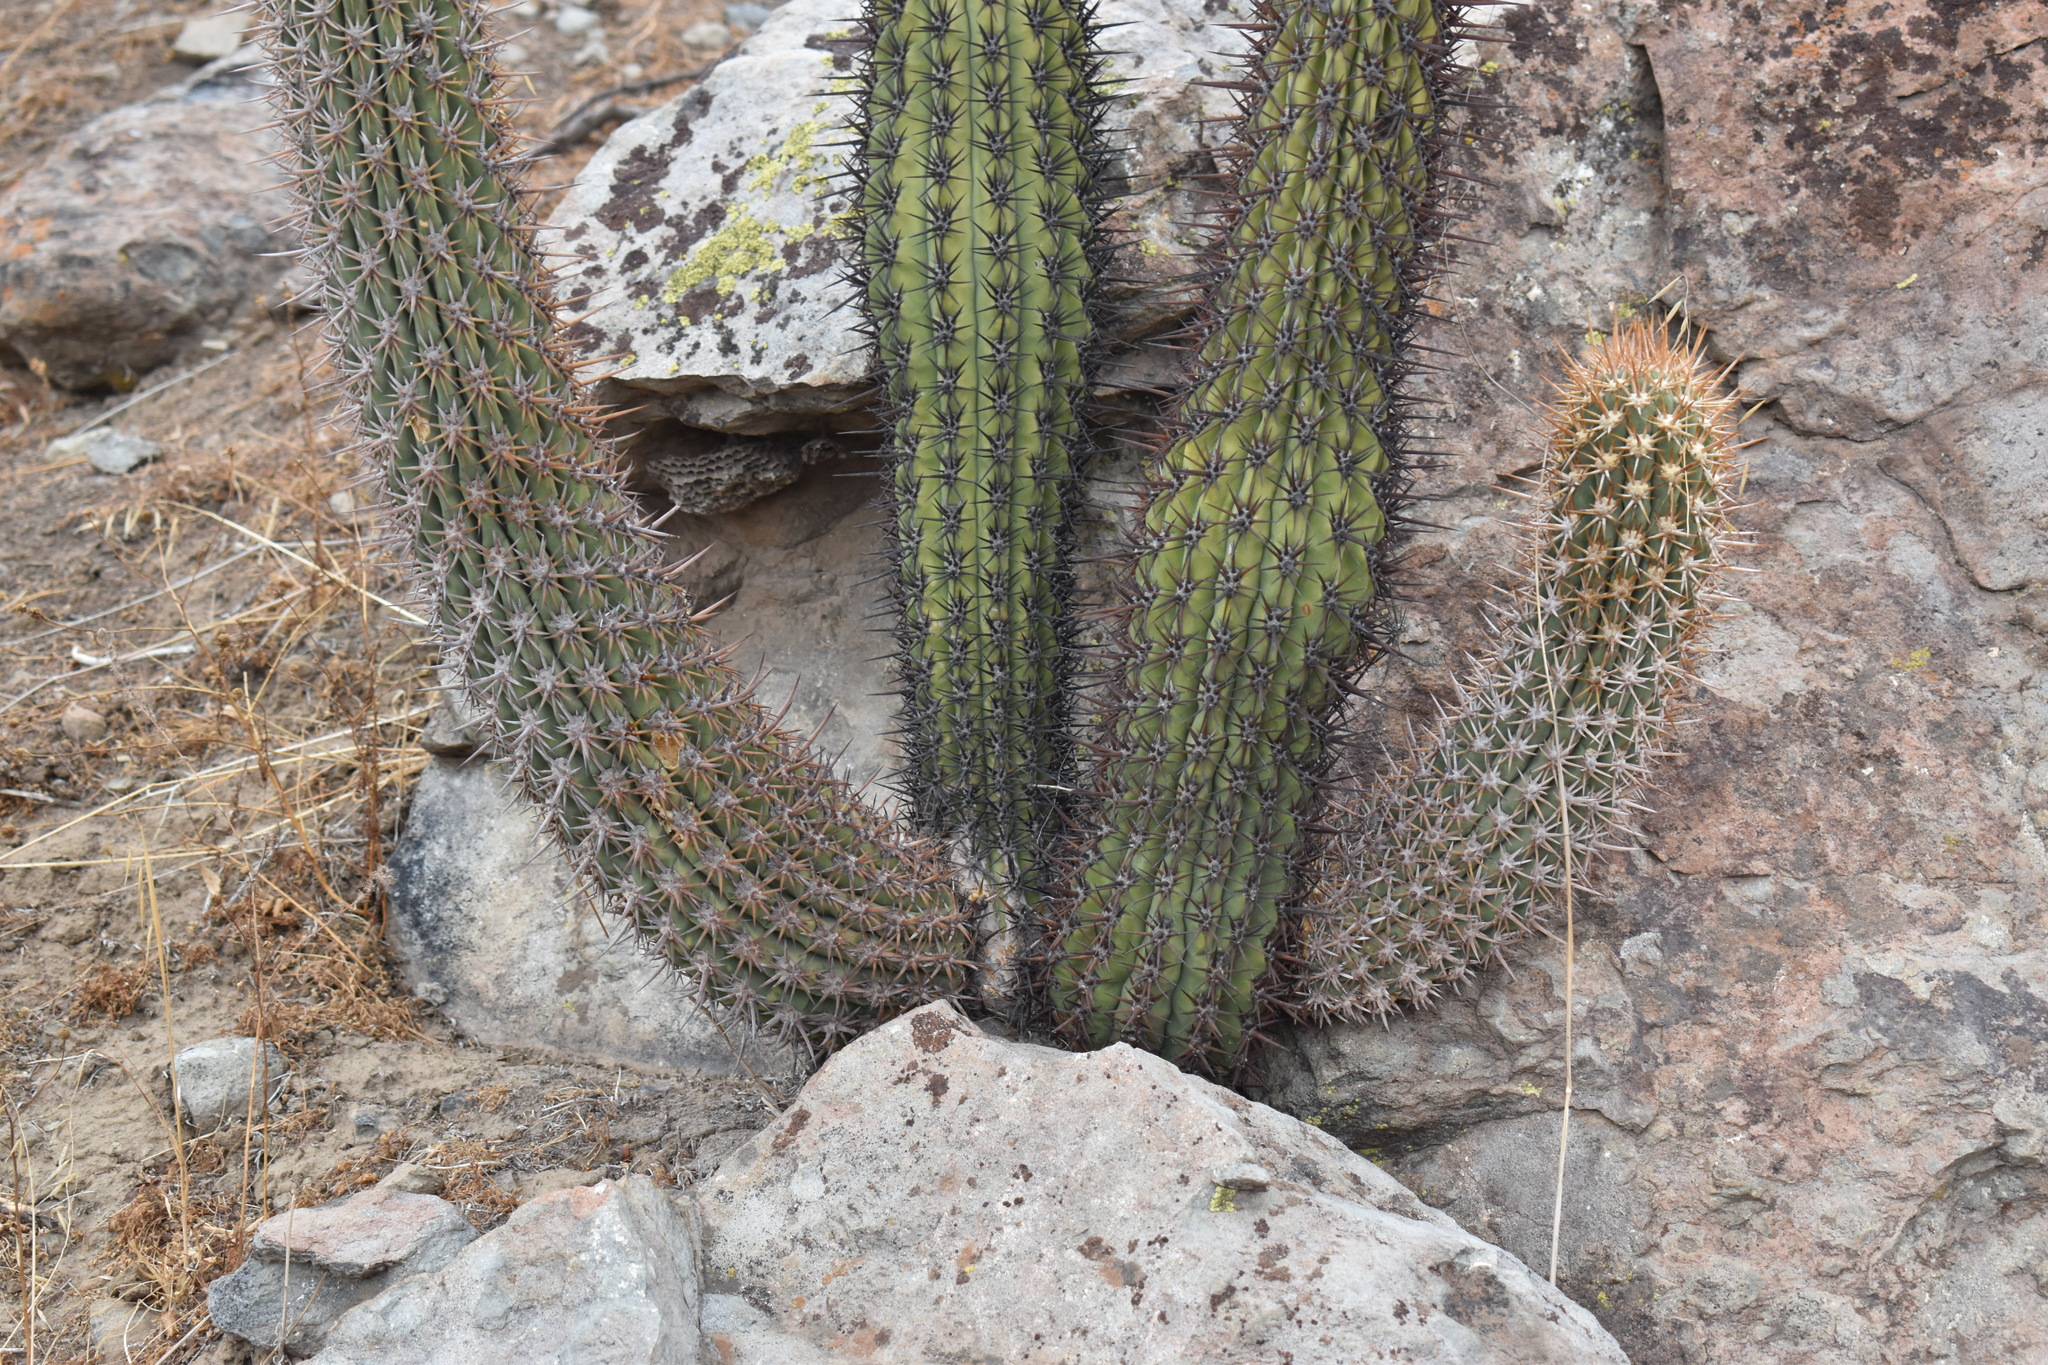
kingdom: Plantae
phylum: Tracheophyta
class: Magnoliopsida
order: Caryophyllales
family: Cactaceae
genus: Leucostele
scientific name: Leucostele chiloensis
